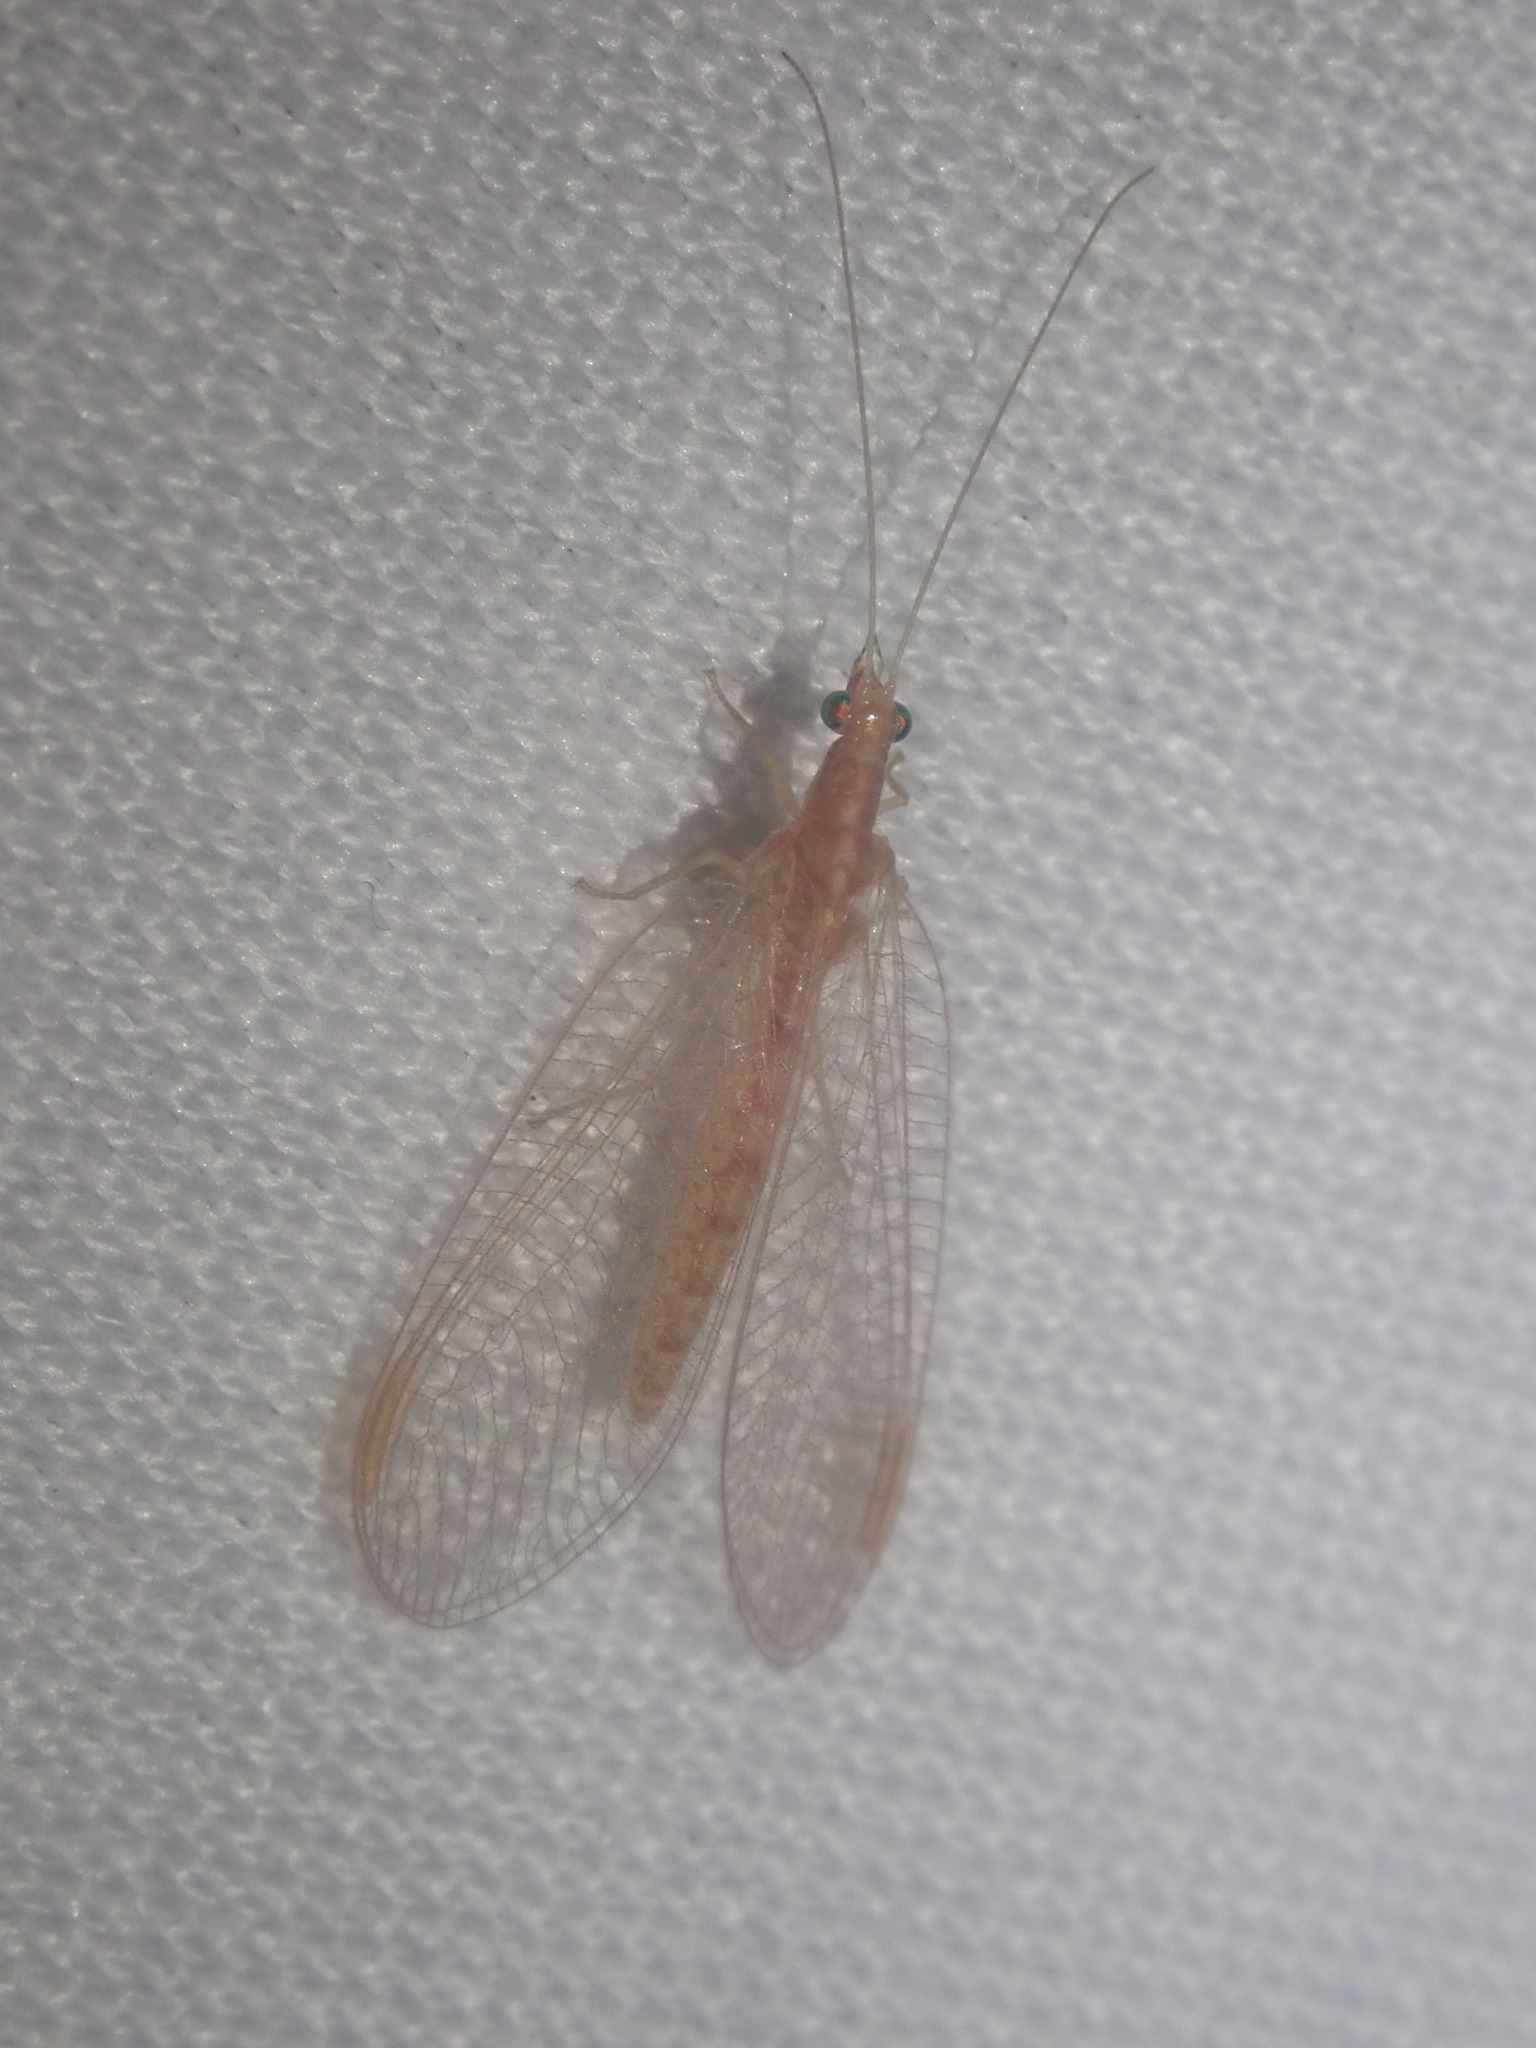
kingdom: Animalia
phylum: Arthropoda
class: Insecta
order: Neuroptera
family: Chrysopidae
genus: Chrysoperla
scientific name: Chrysoperla
